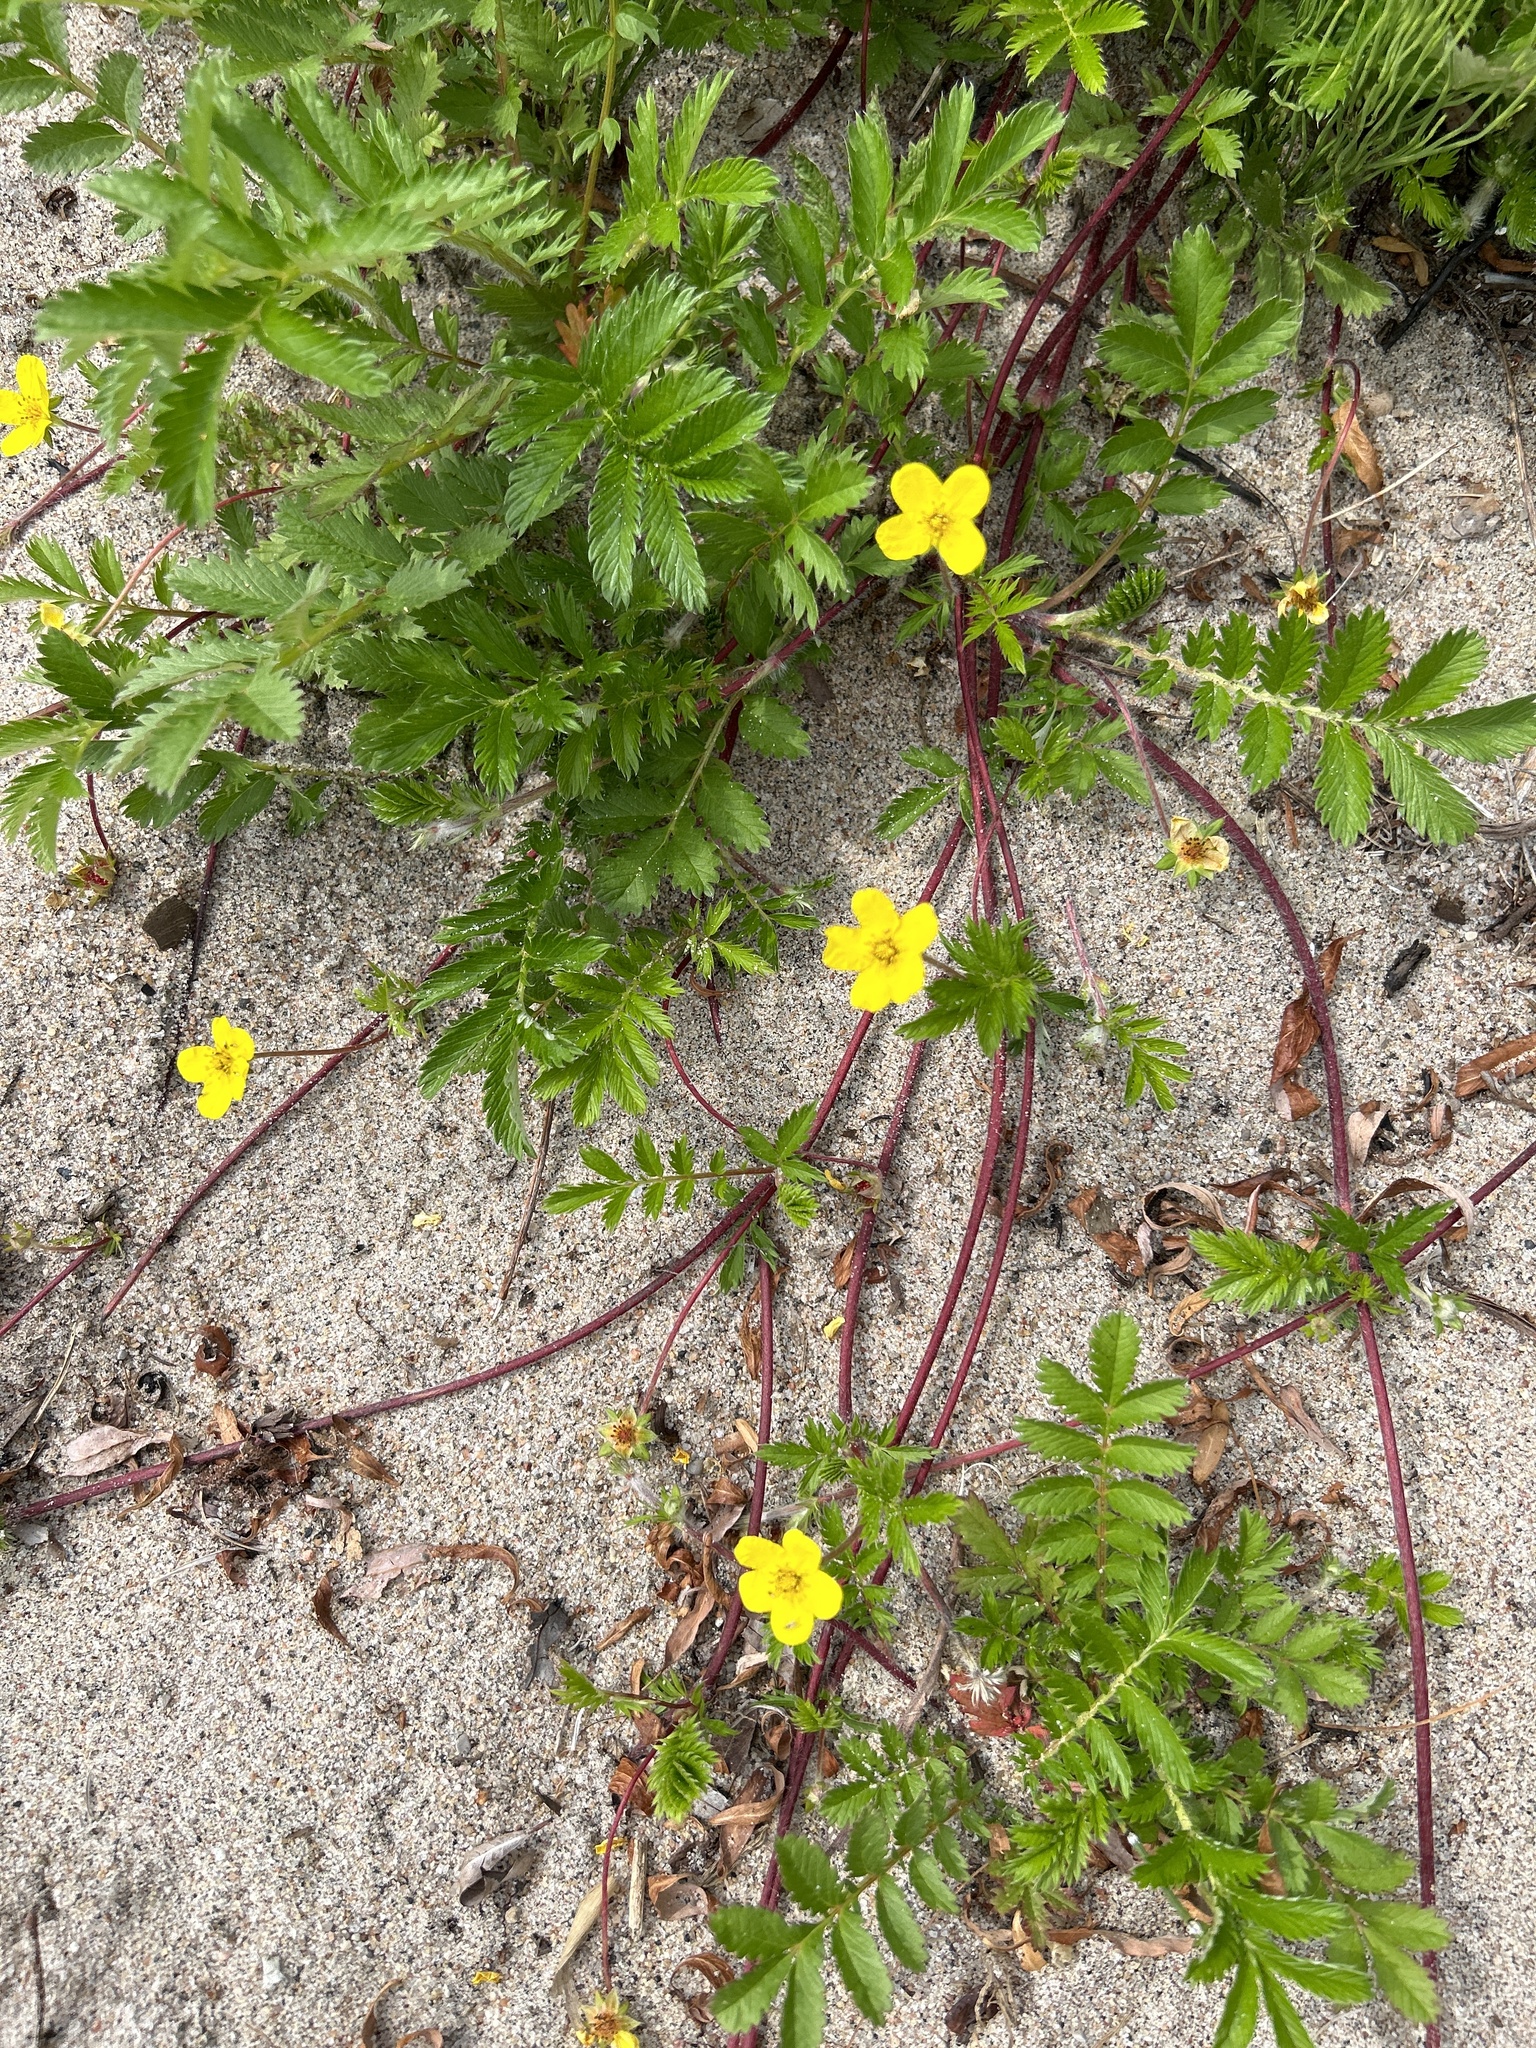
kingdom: Plantae
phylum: Tracheophyta
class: Magnoliopsida
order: Rosales
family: Rosaceae
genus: Argentina
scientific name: Argentina anserina
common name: Common silverweed
